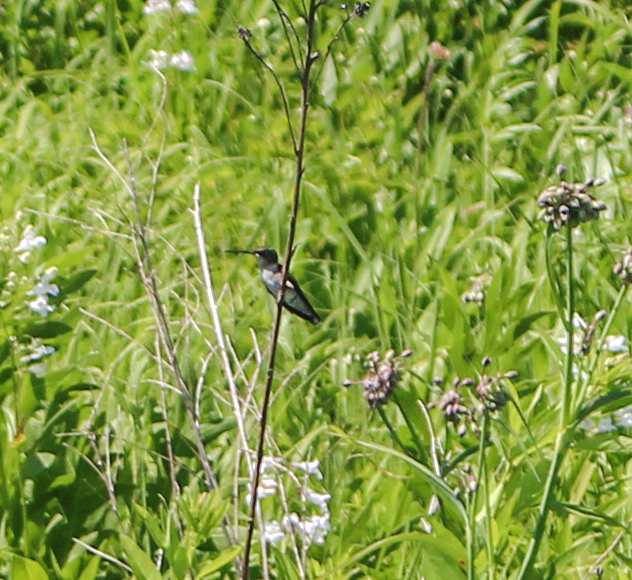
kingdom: Animalia
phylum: Chordata
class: Aves
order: Apodiformes
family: Trochilidae
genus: Archilochus
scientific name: Archilochus colubris
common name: Ruby-throated hummingbird
